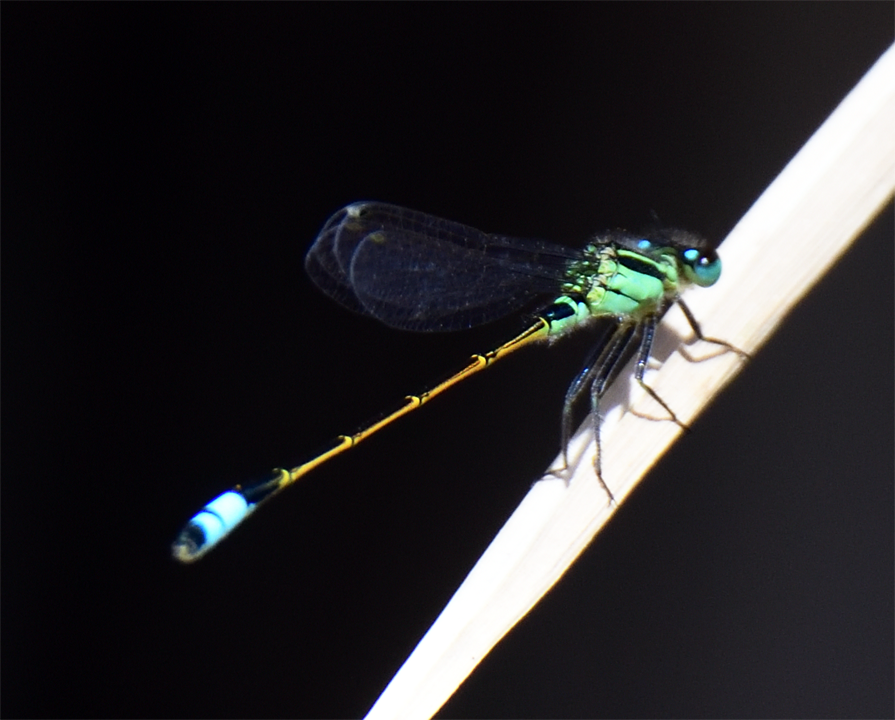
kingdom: Animalia
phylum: Arthropoda
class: Insecta
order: Odonata
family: Coenagrionidae
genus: Ischnura
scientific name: Ischnura ramburii
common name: Rambur's forktail
